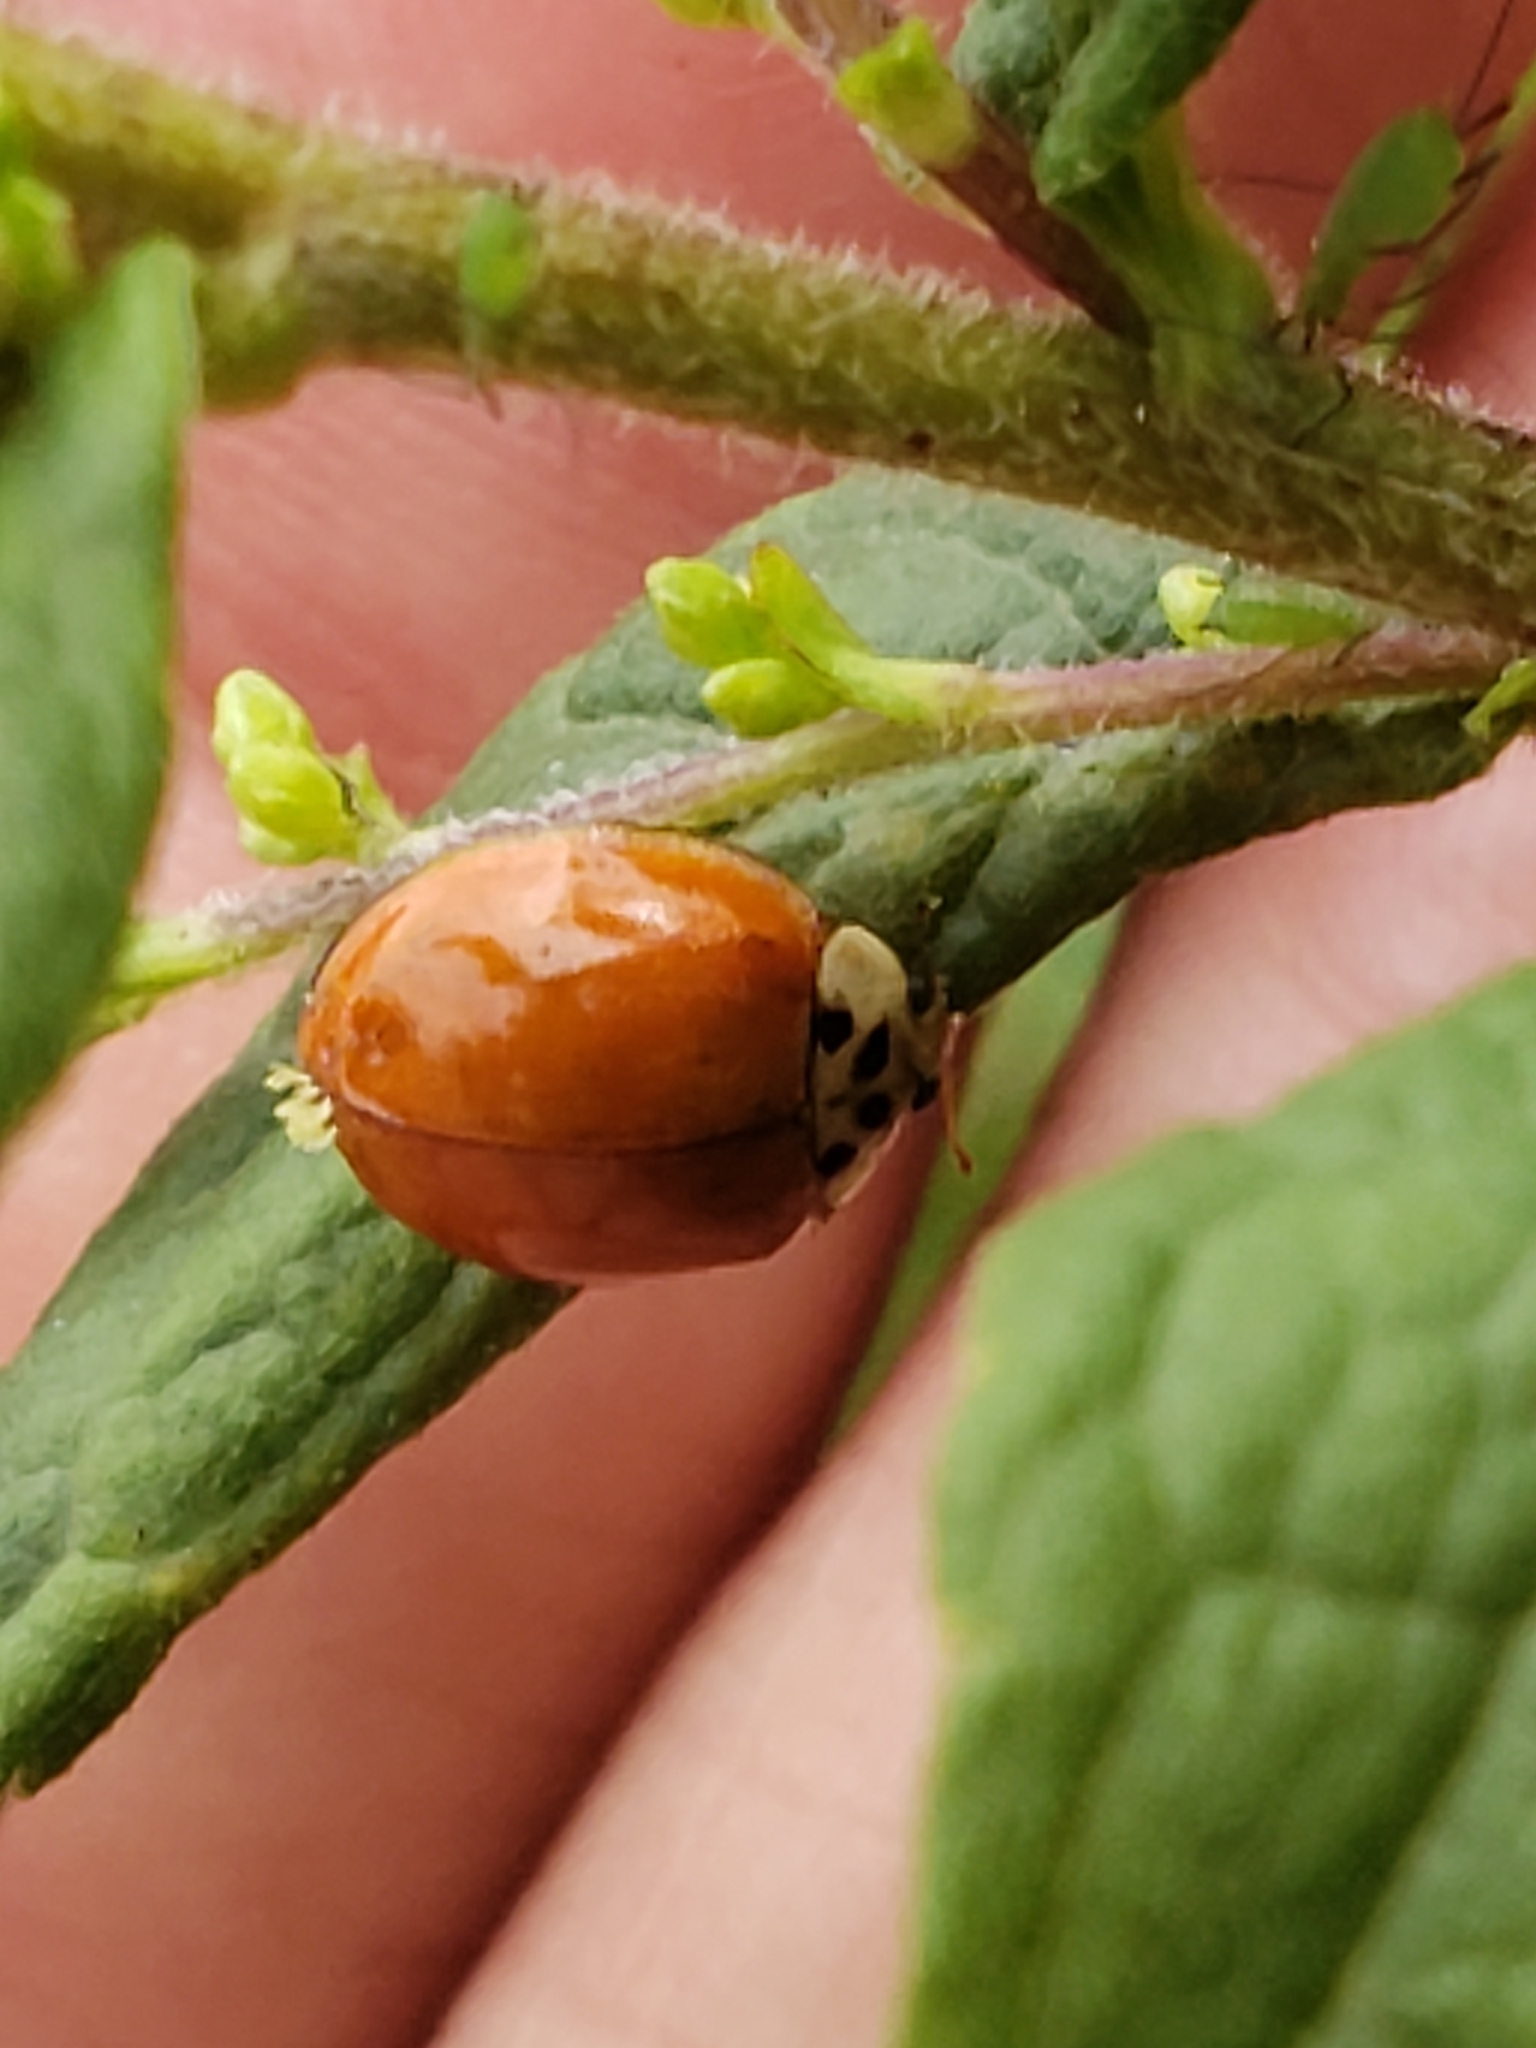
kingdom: Fungi
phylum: Ascomycota
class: Laboulbeniomycetes
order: Laboulbeniales
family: Laboulbeniaceae
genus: Hesperomyces
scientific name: Hesperomyces harmoniae
